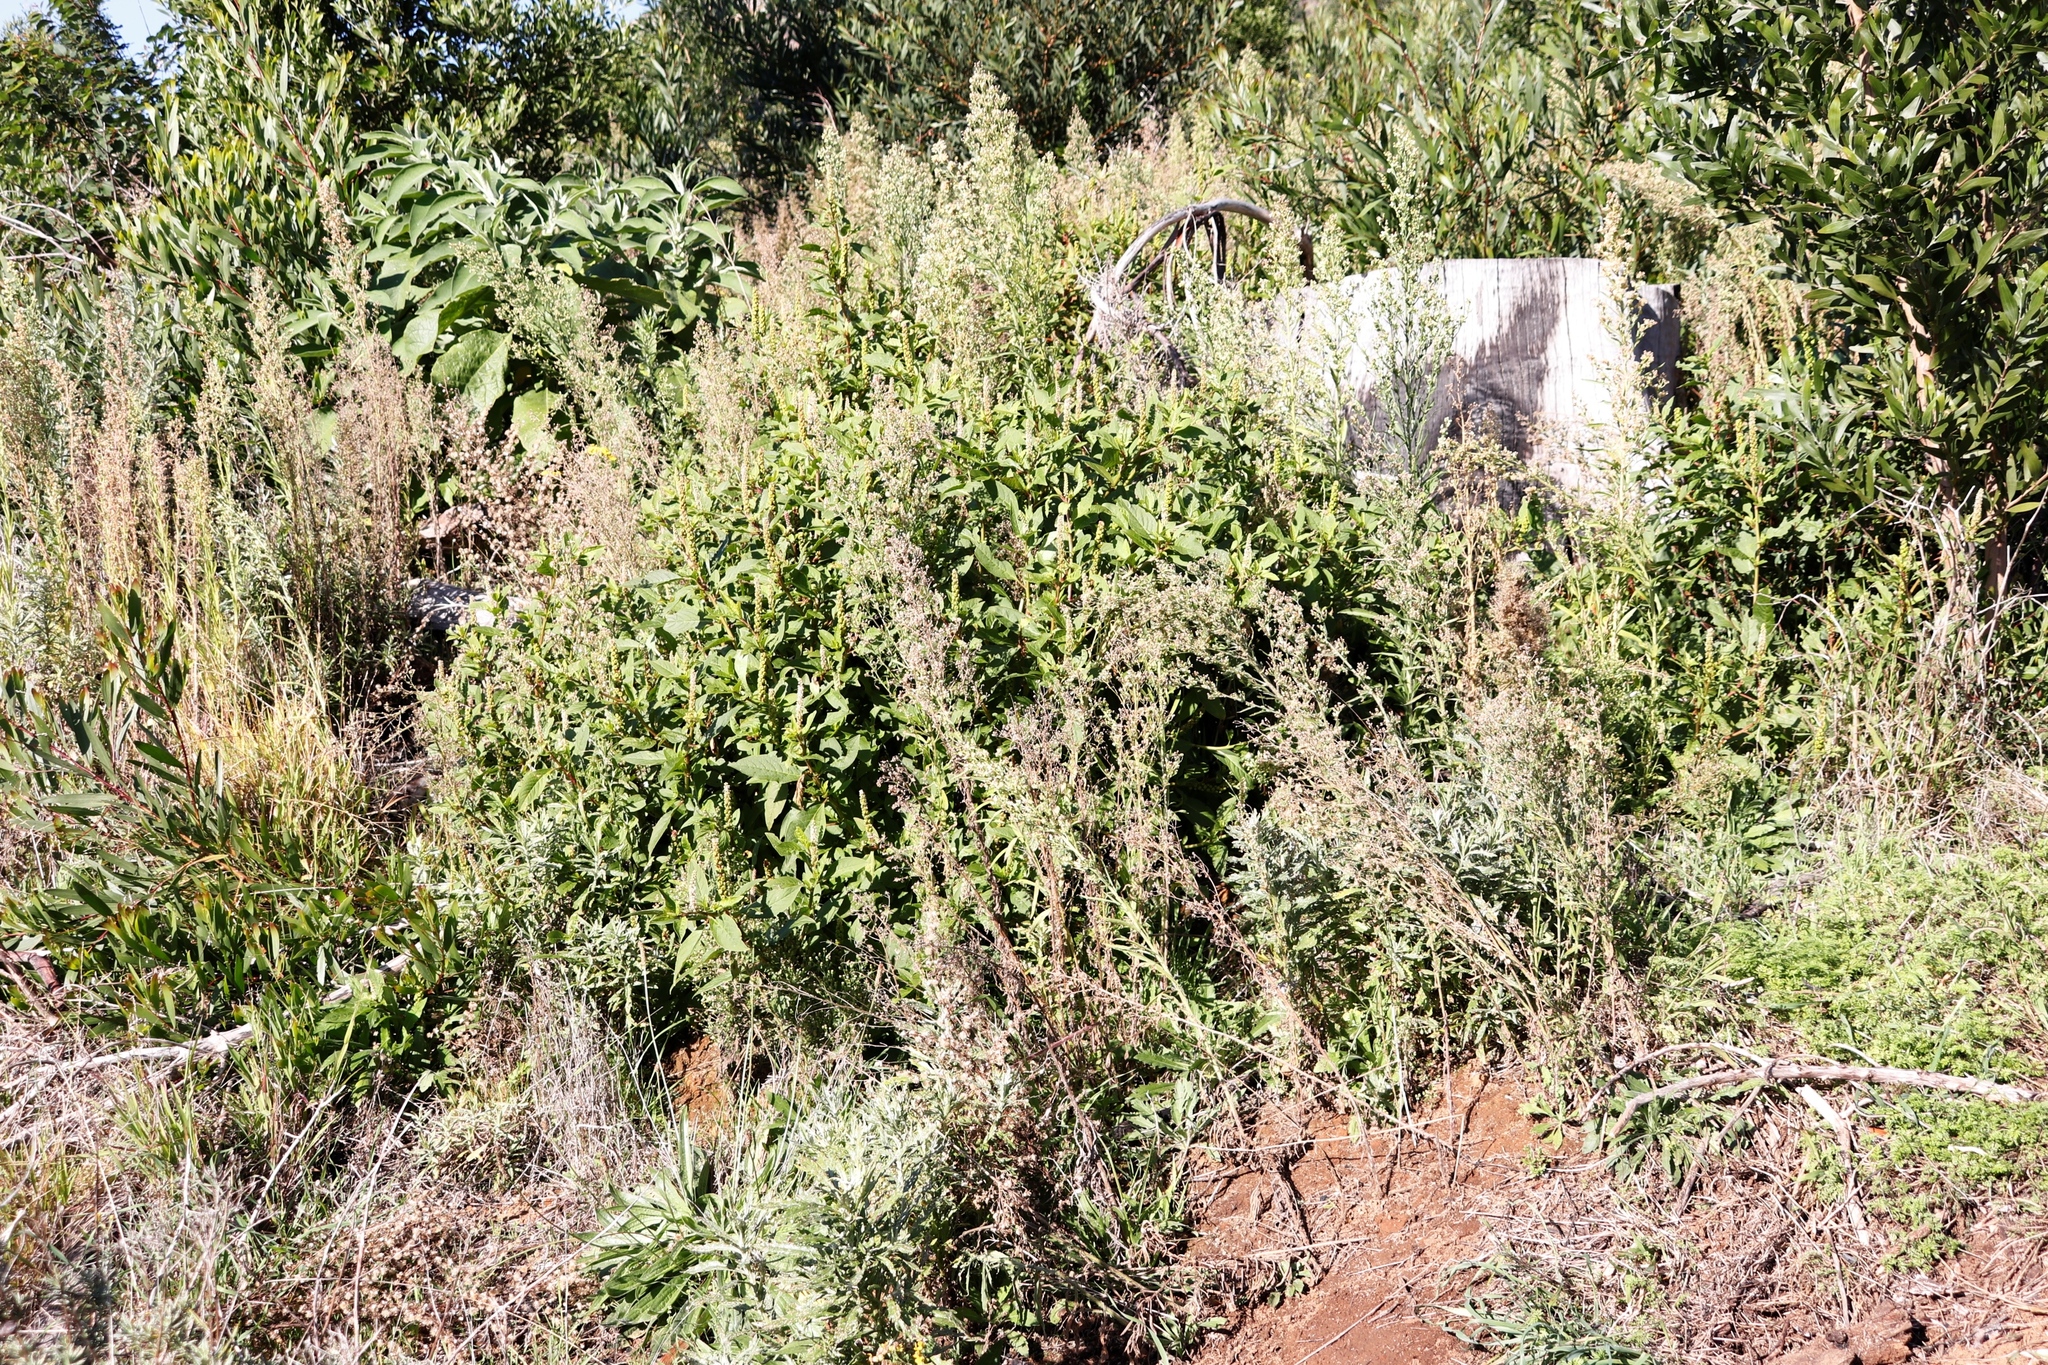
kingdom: Plantae
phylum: Tracheophyta
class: Magnoliopsida
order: Caryophyllales
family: Phytolaccaceae
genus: Phytolacca
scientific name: Phytolacca icosandra
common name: Button pokeweed
